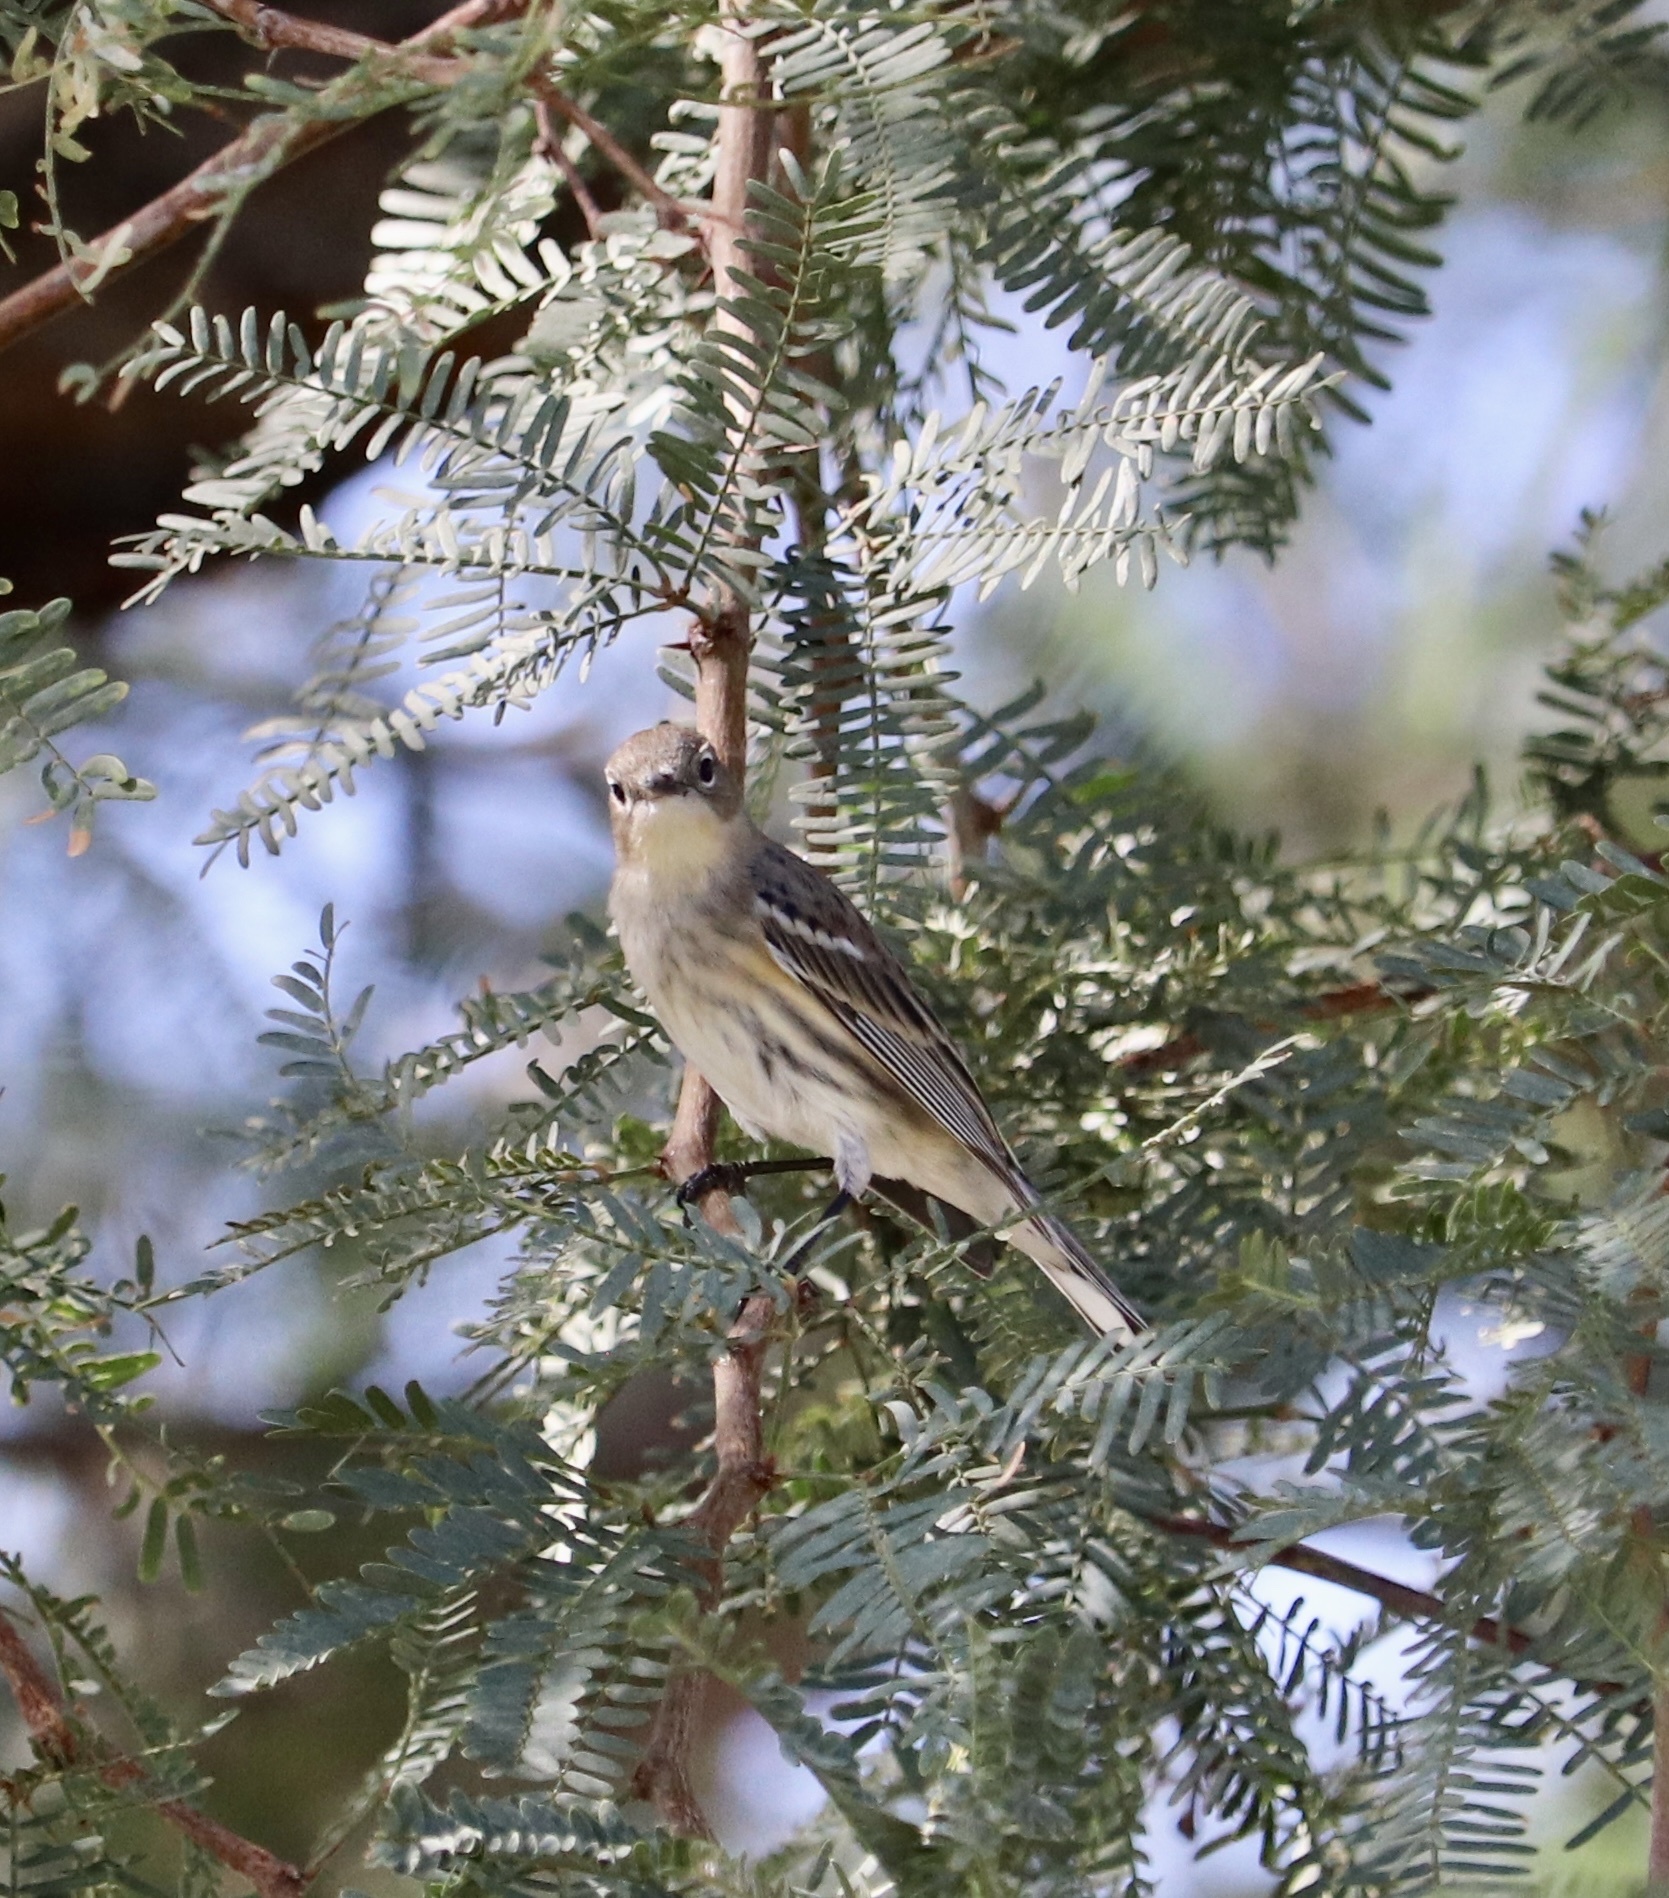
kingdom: Animalia
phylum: Chordata
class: Aves
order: Passeriformes
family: Parulidae
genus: Setophaga
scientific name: Setophaga coronata
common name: Myrtle warbler
